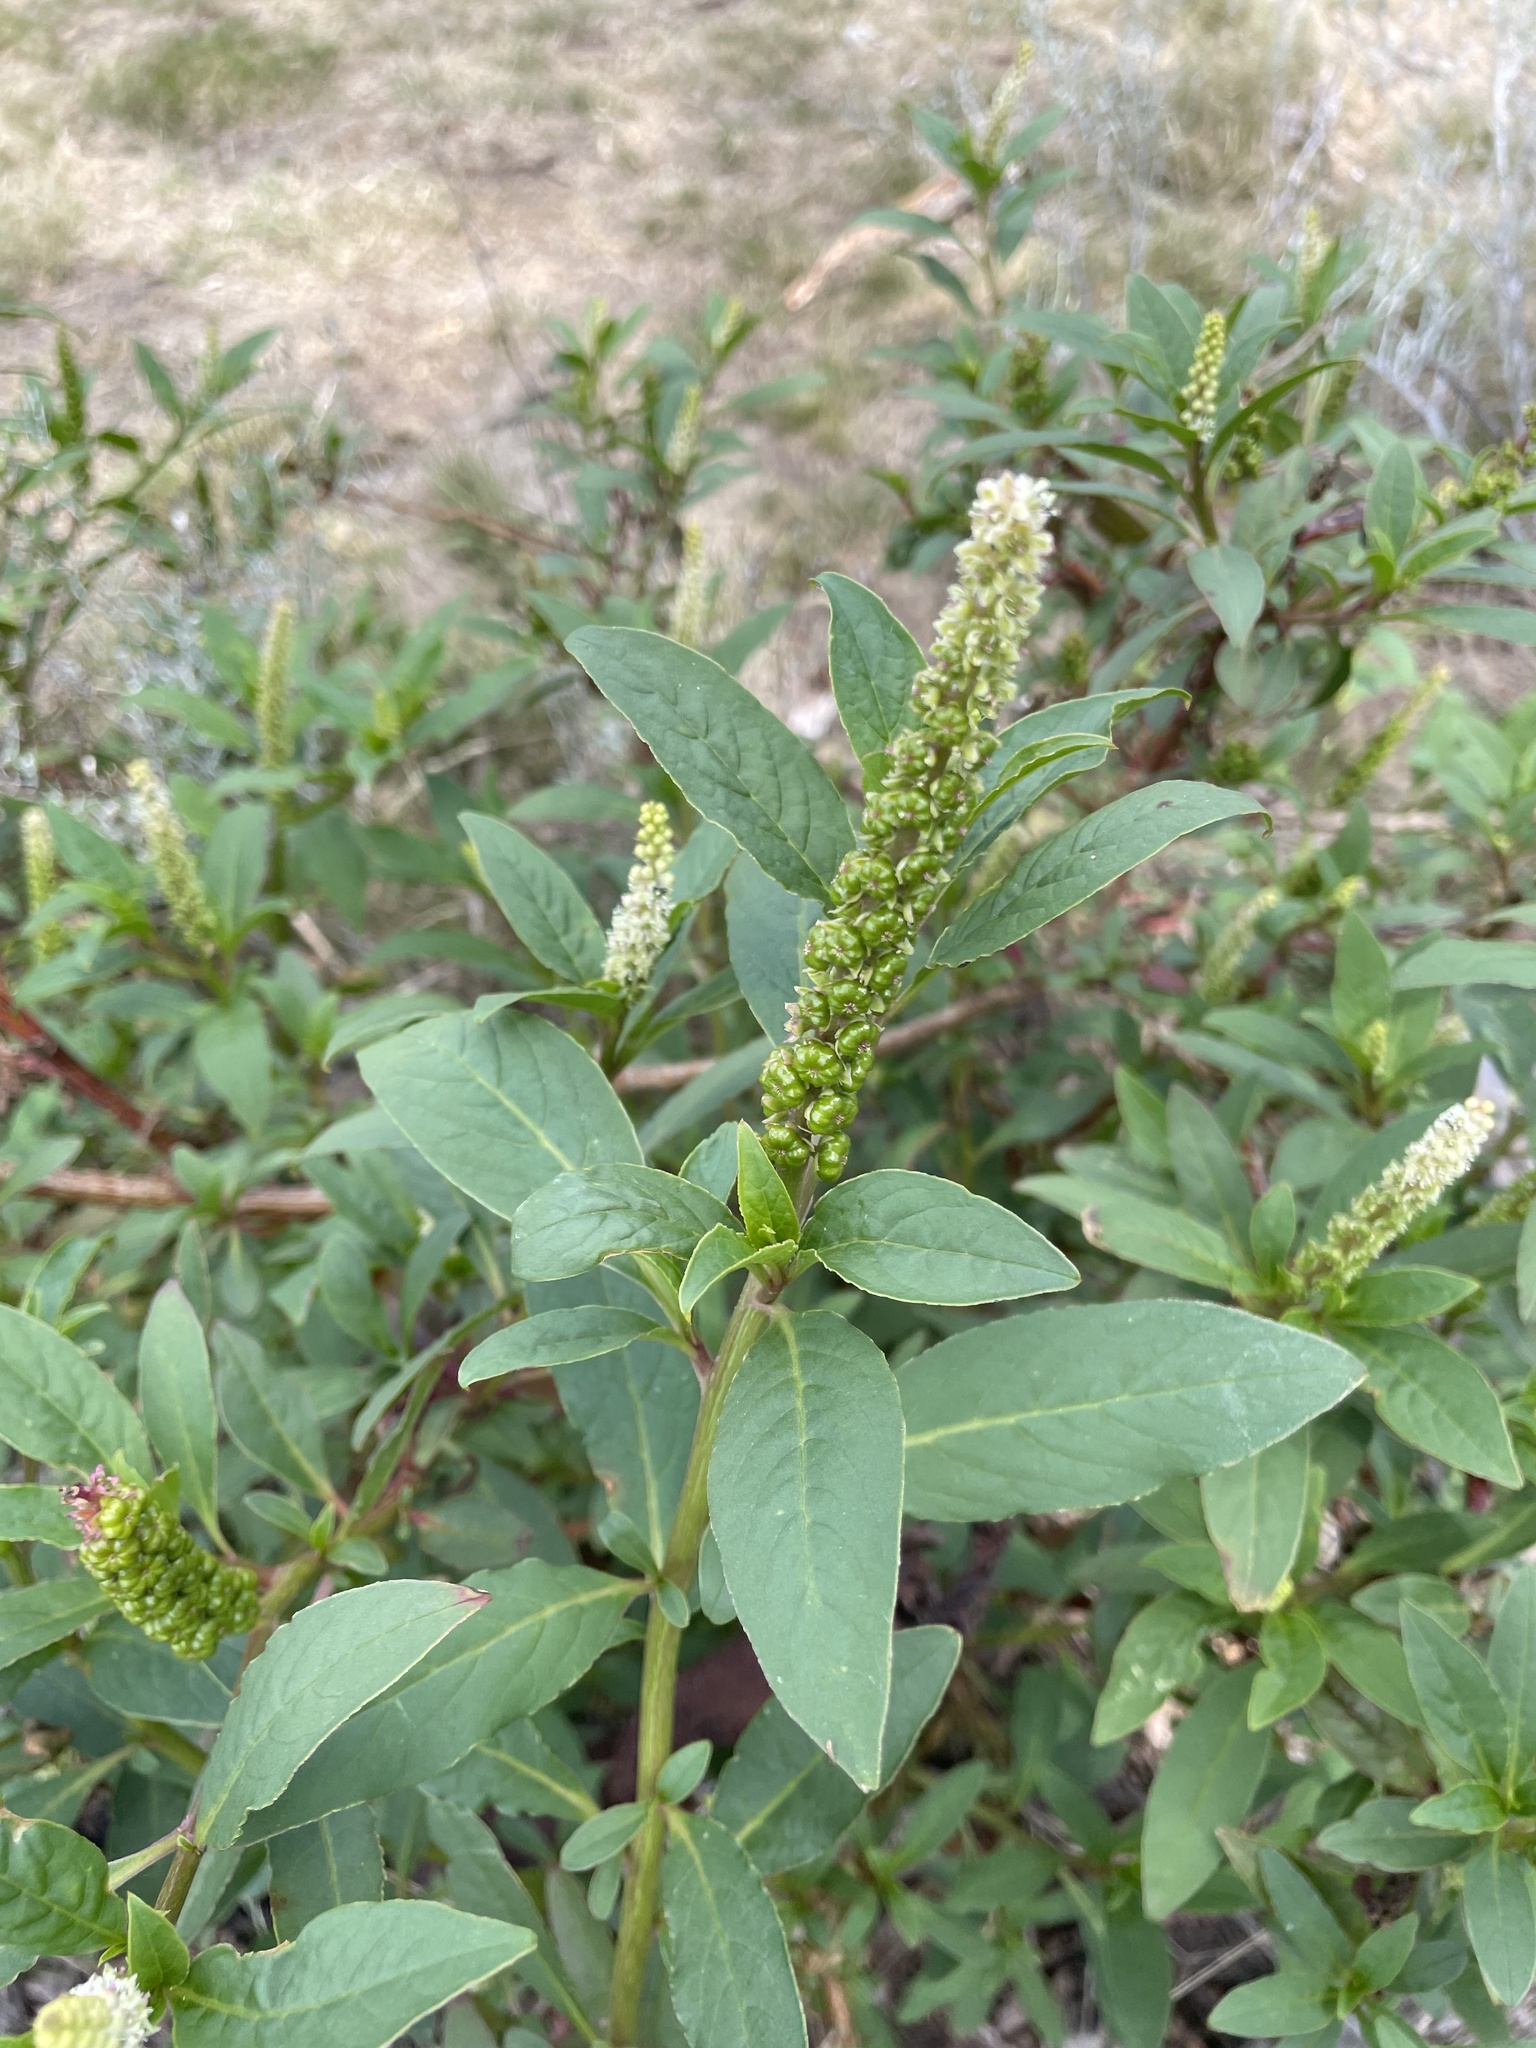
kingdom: Plantae
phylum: Tracheophyta
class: Magnoliopsida
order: Caryophyllales
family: Phytolaccaceae
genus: Phytolacca
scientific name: Phytolacca icosandra
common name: Button pokeweed
